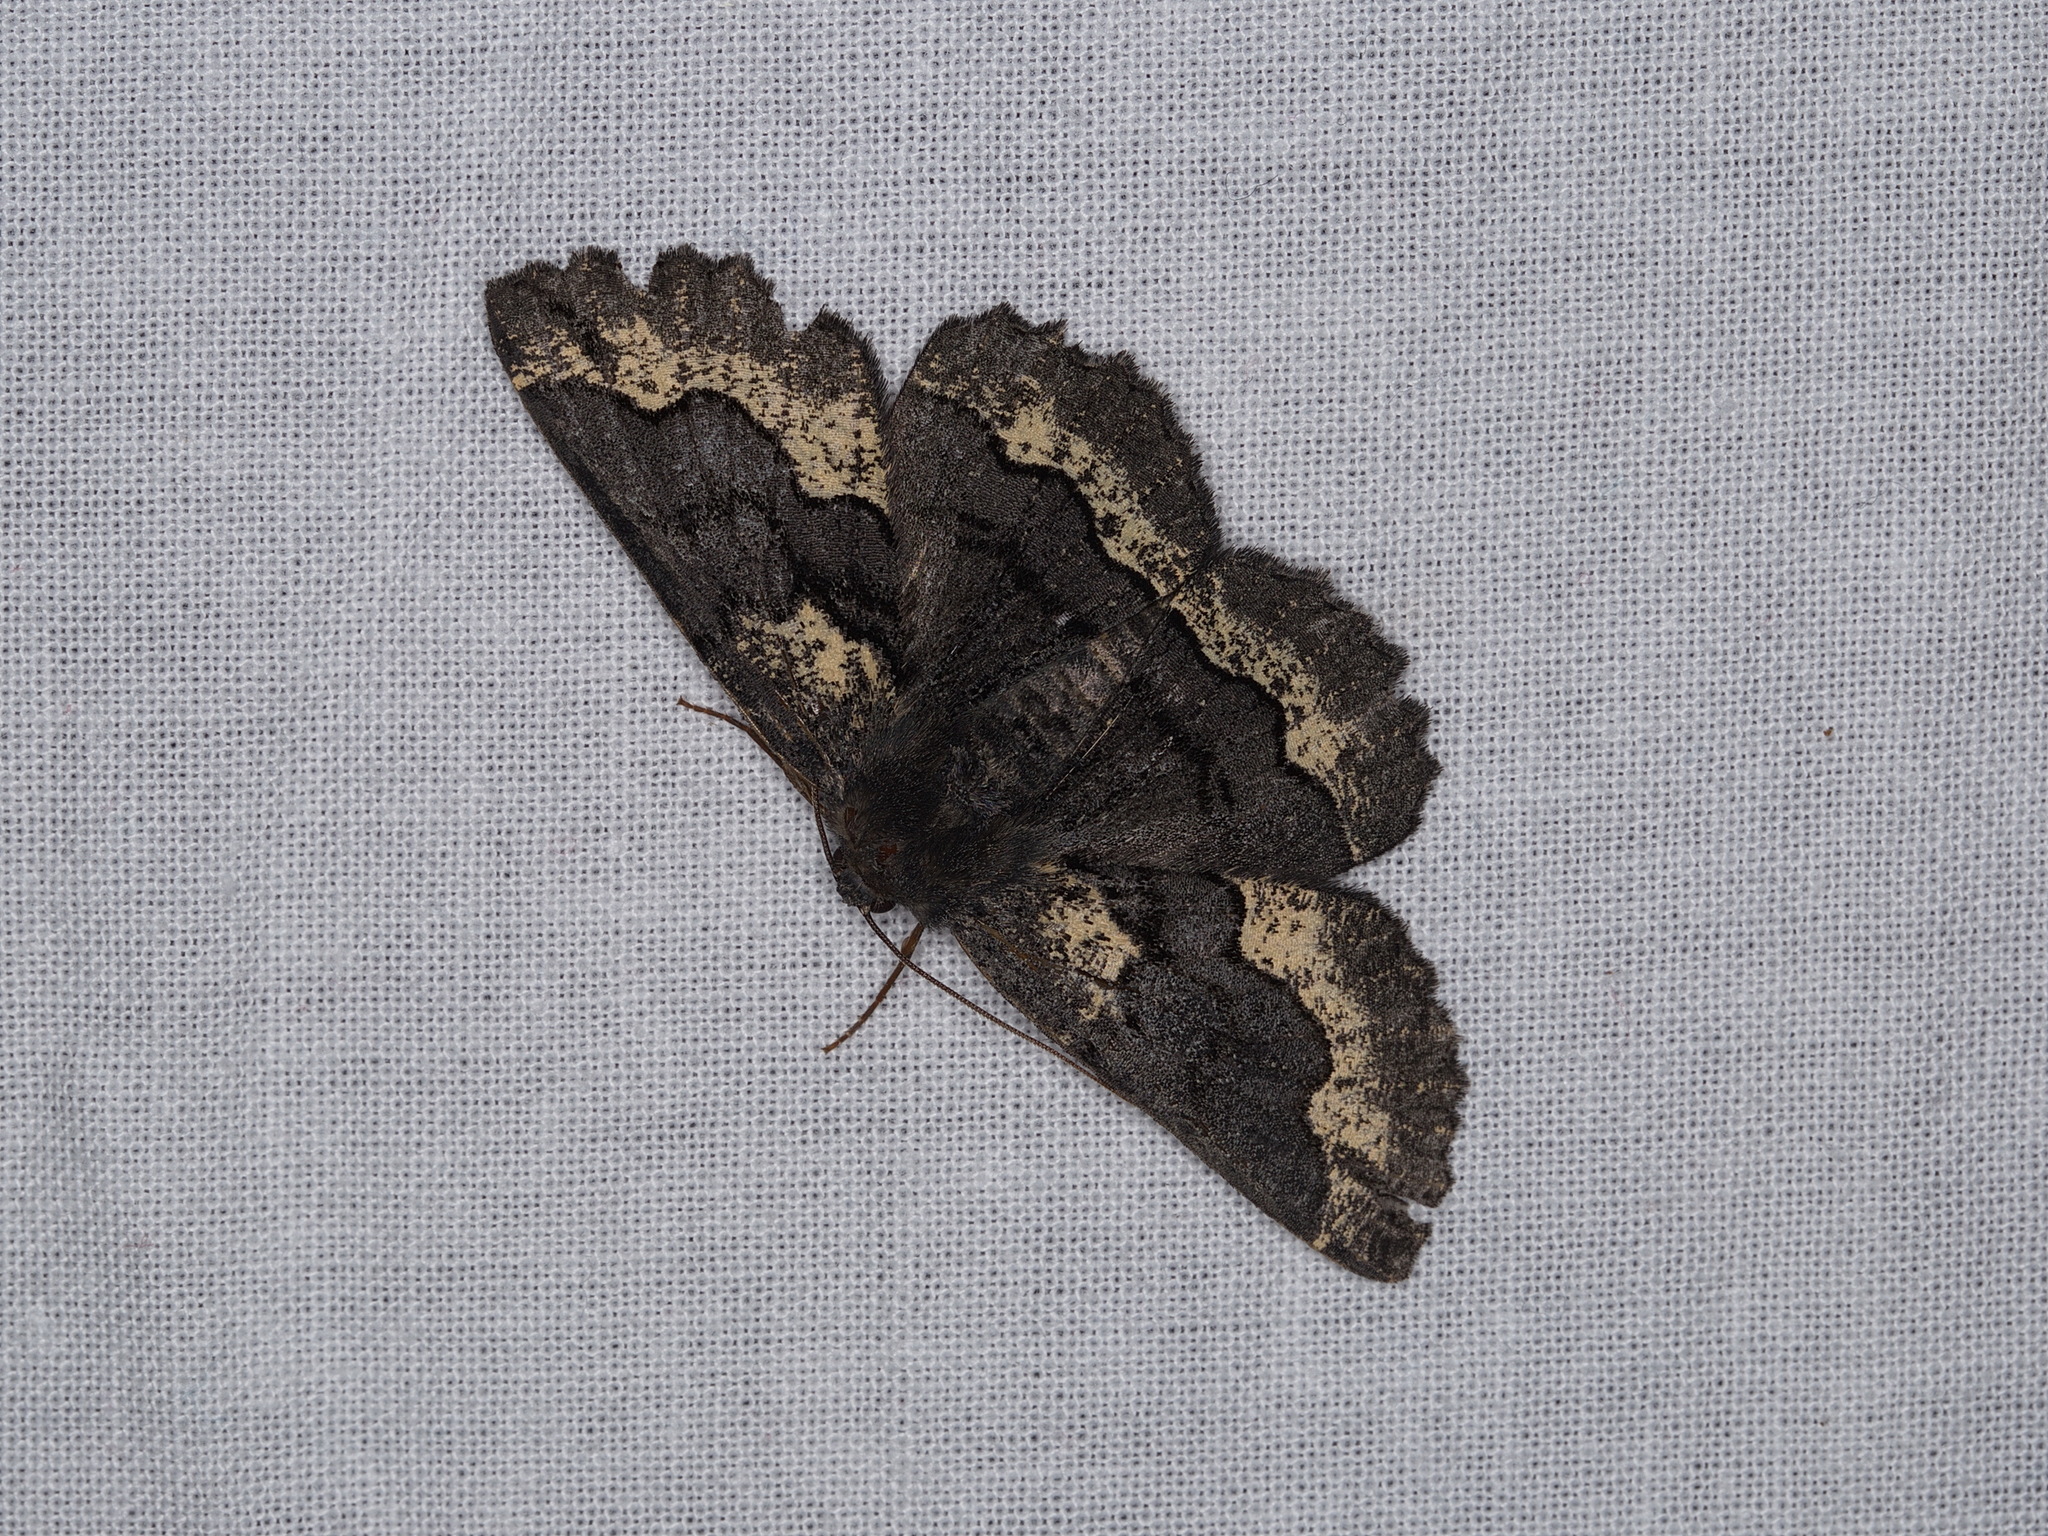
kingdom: Animalia
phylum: Arthropoda
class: Insecta
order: Lepidoptera
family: Geometridae
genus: Melanodes
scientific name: Melanodes anthracitaria
